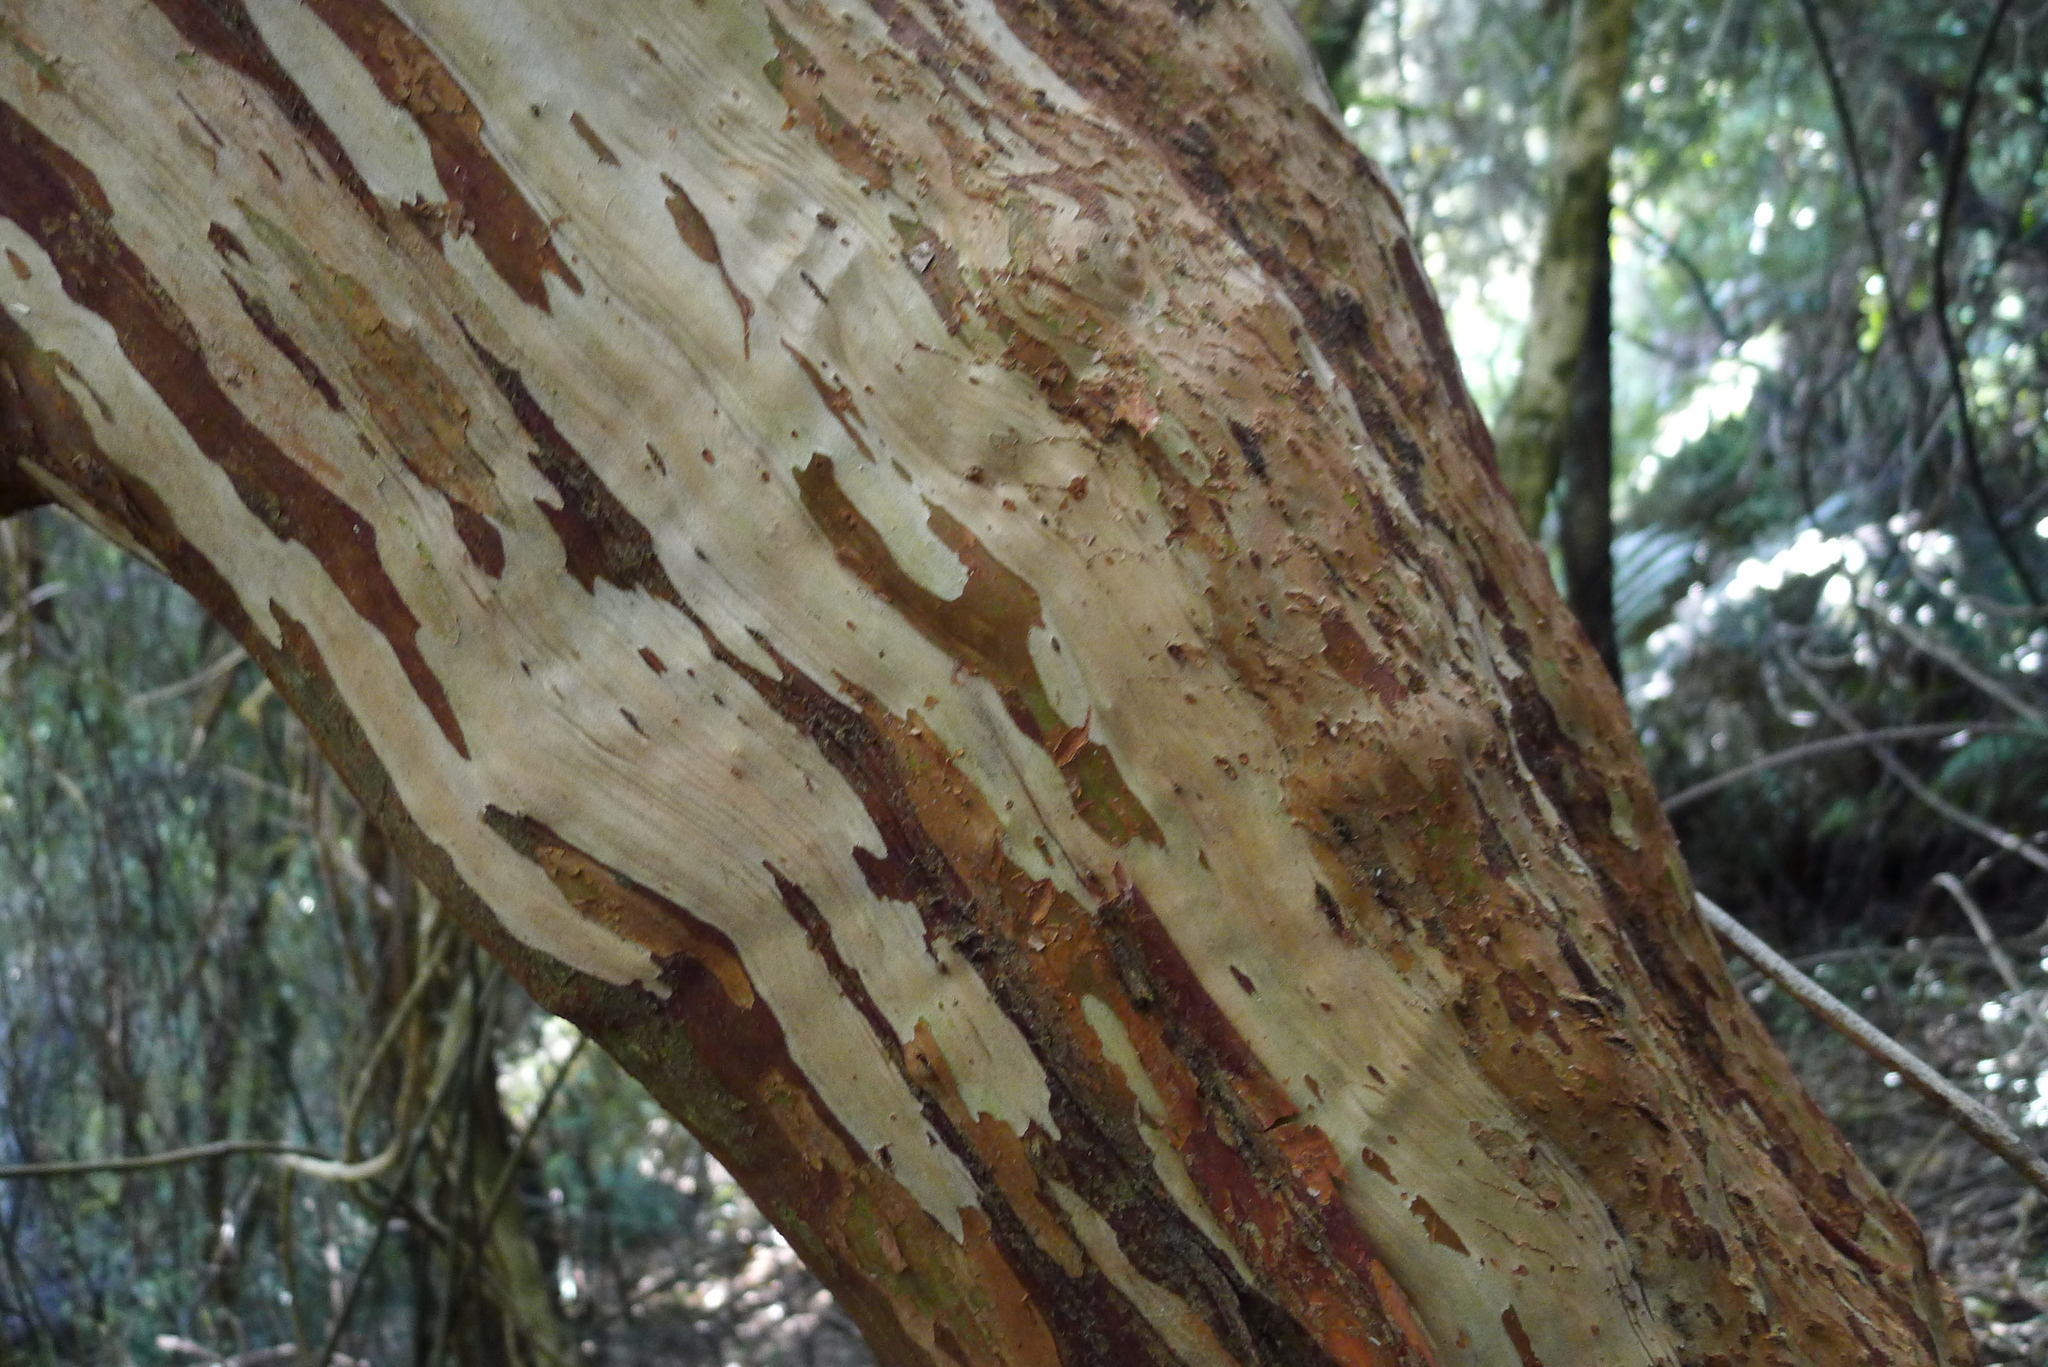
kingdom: Plantae
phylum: Tracheophyta
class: Magnoliopsida
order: Myrtales
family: Myrtaceae
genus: Lophomyrtus
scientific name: Lophomyrtus obcordata
